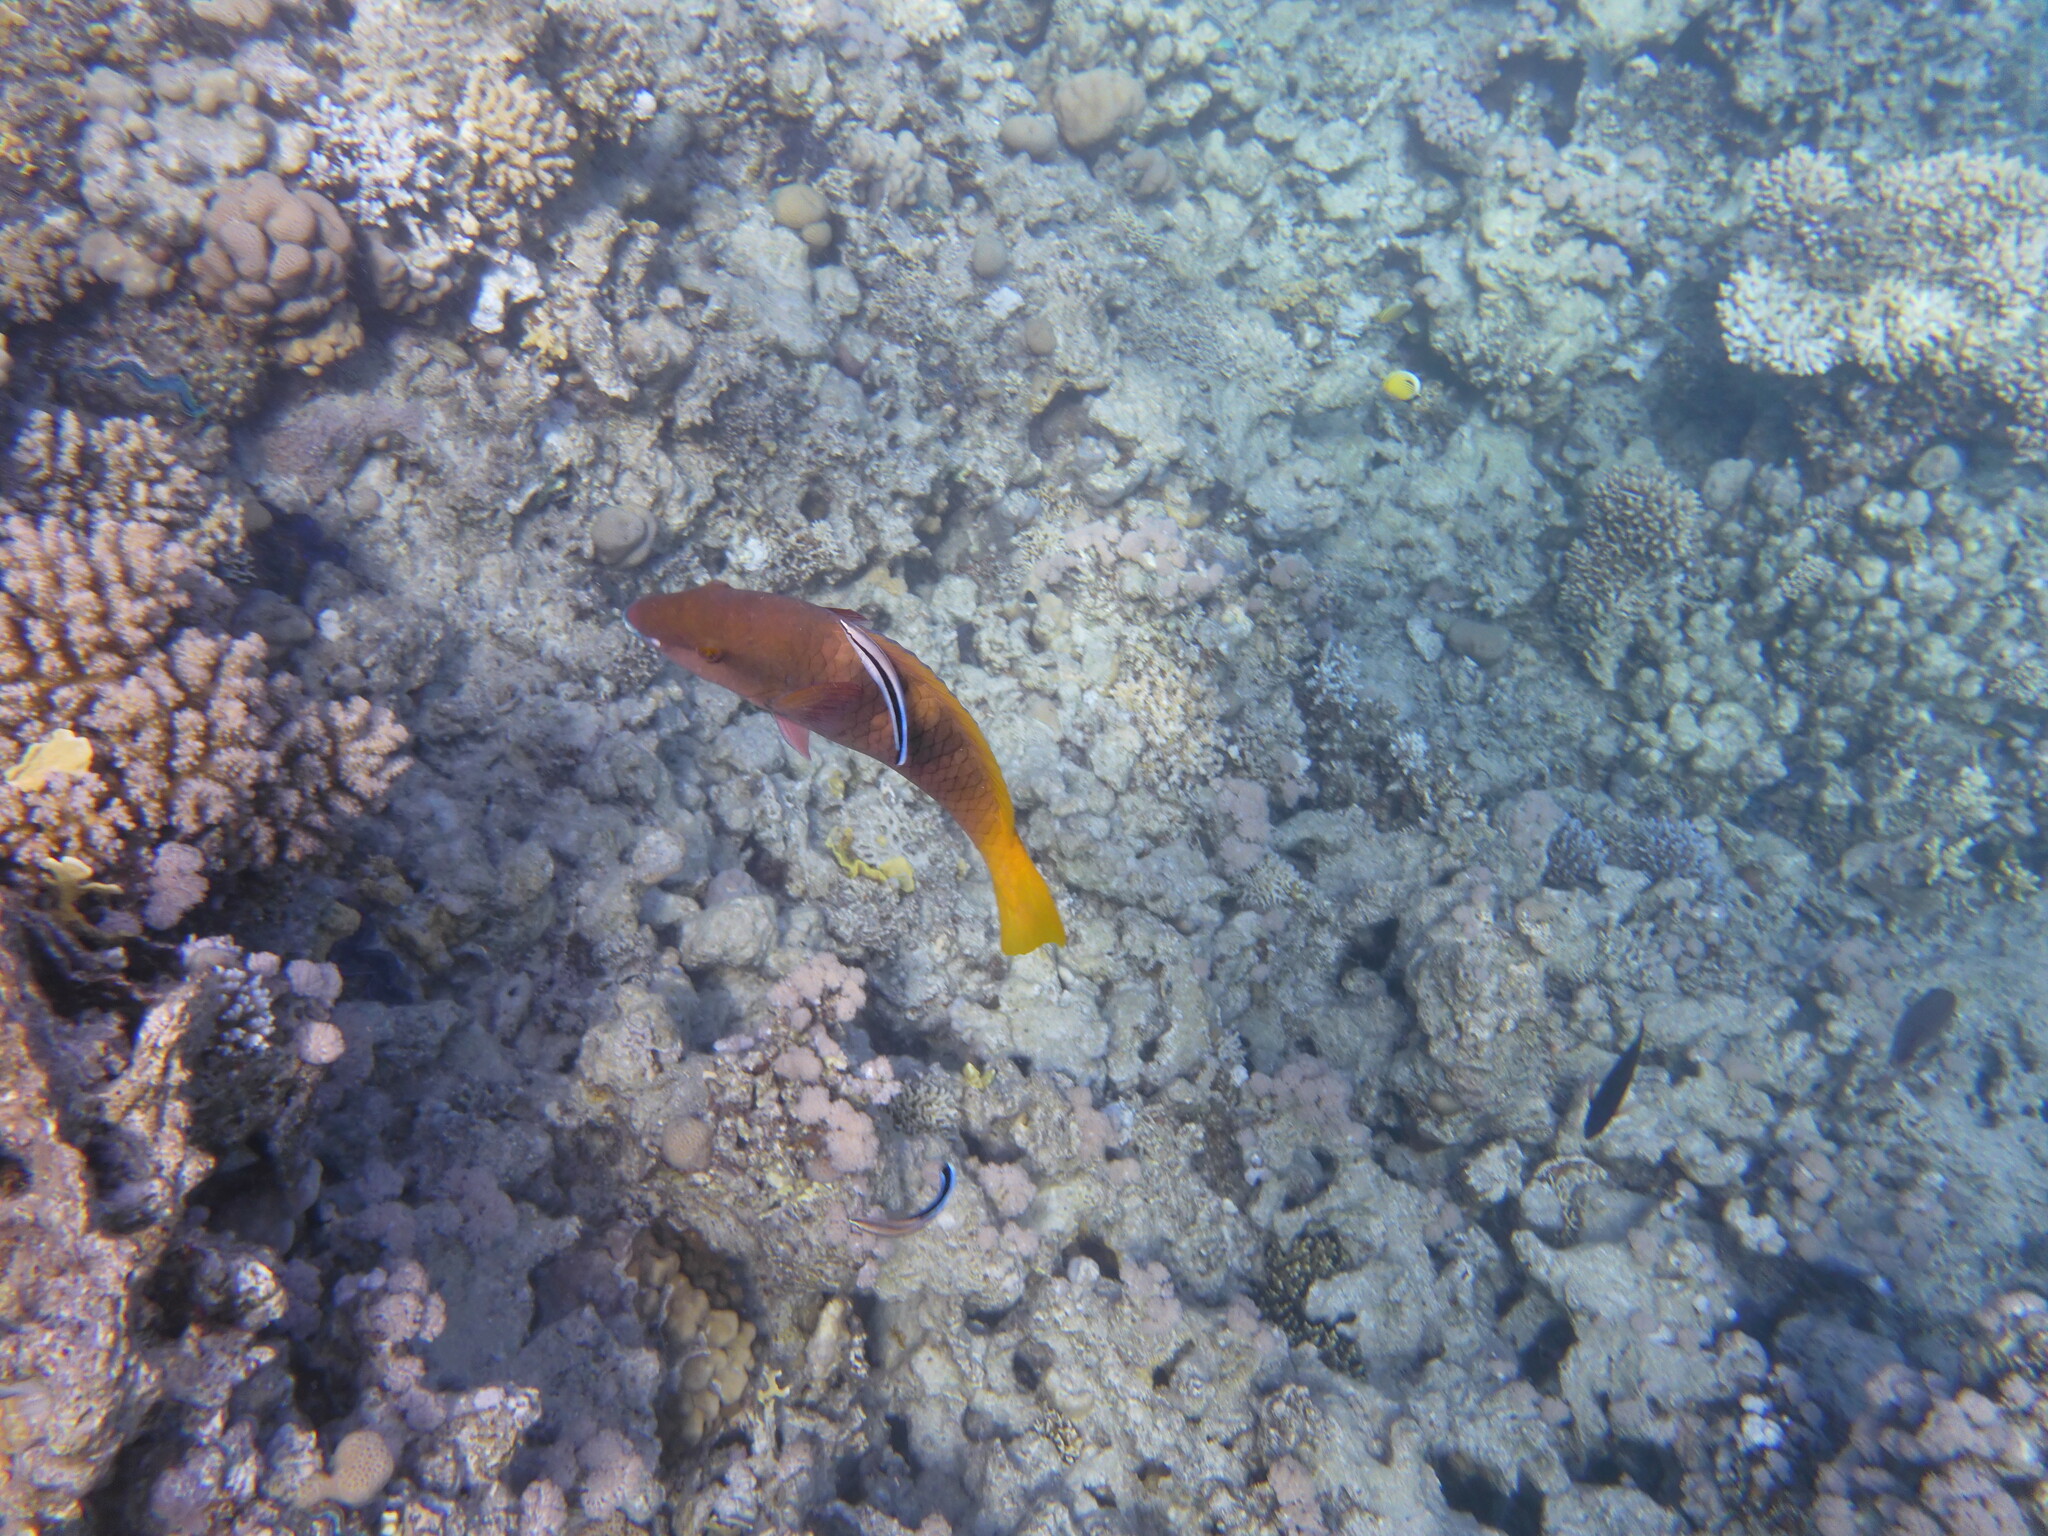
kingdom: Animalia
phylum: Chordata
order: Perciformes
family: Labridae
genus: Labroides
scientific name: Labroides dimidiatus
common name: Blue diesel wrasse
